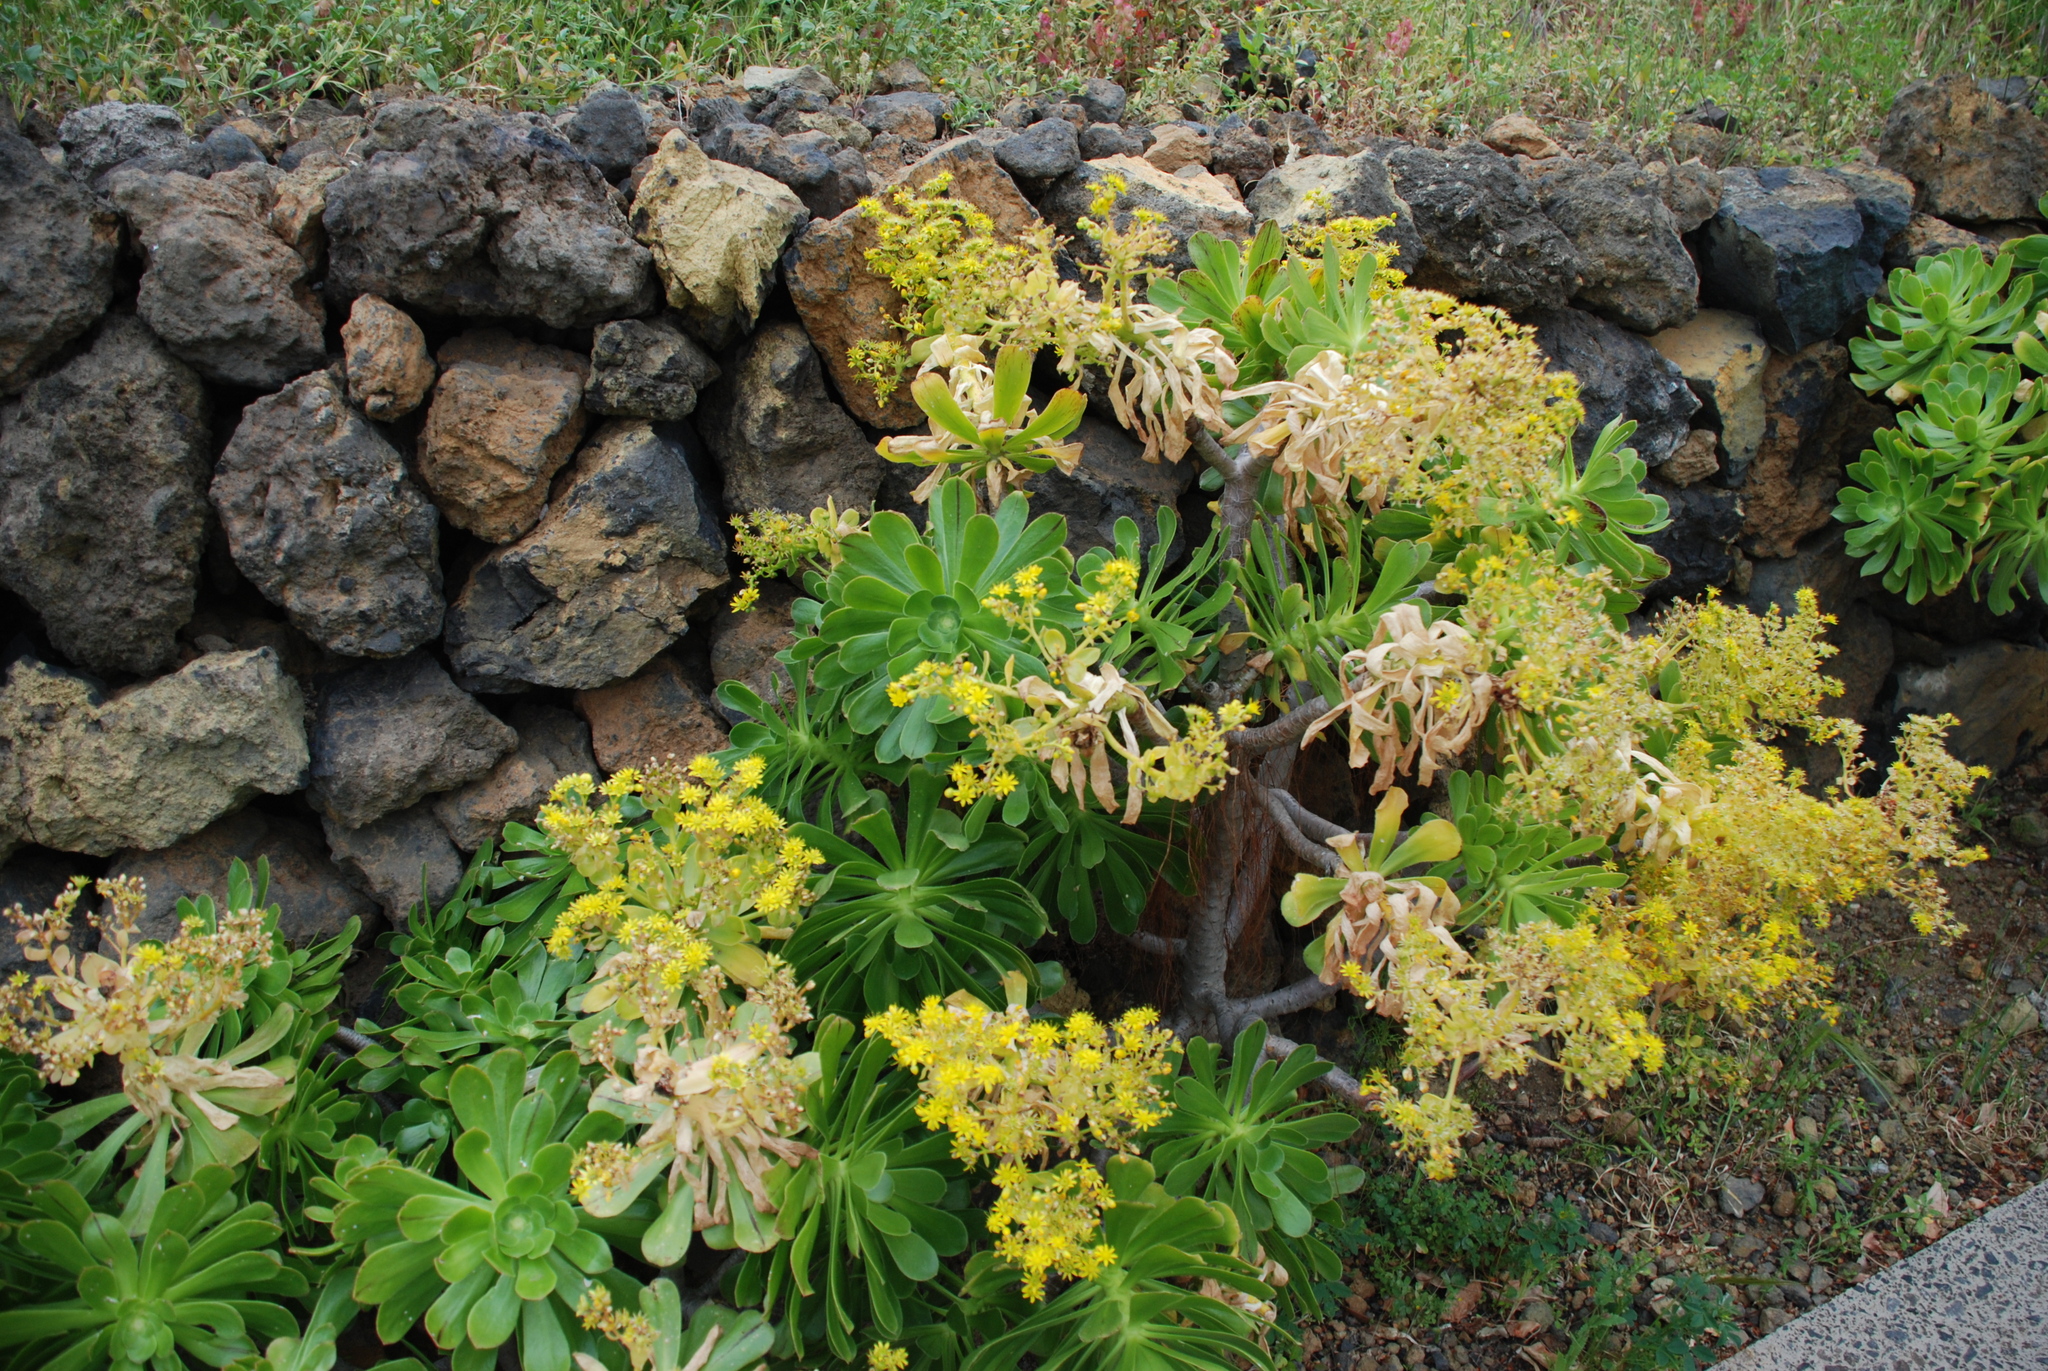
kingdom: Plantae
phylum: Tracheophyta
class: Magnoliopsida
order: Saxifragales
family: Crassulaceae
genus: Aeonium
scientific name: Aeonium arboreum
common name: Tree aeonium
